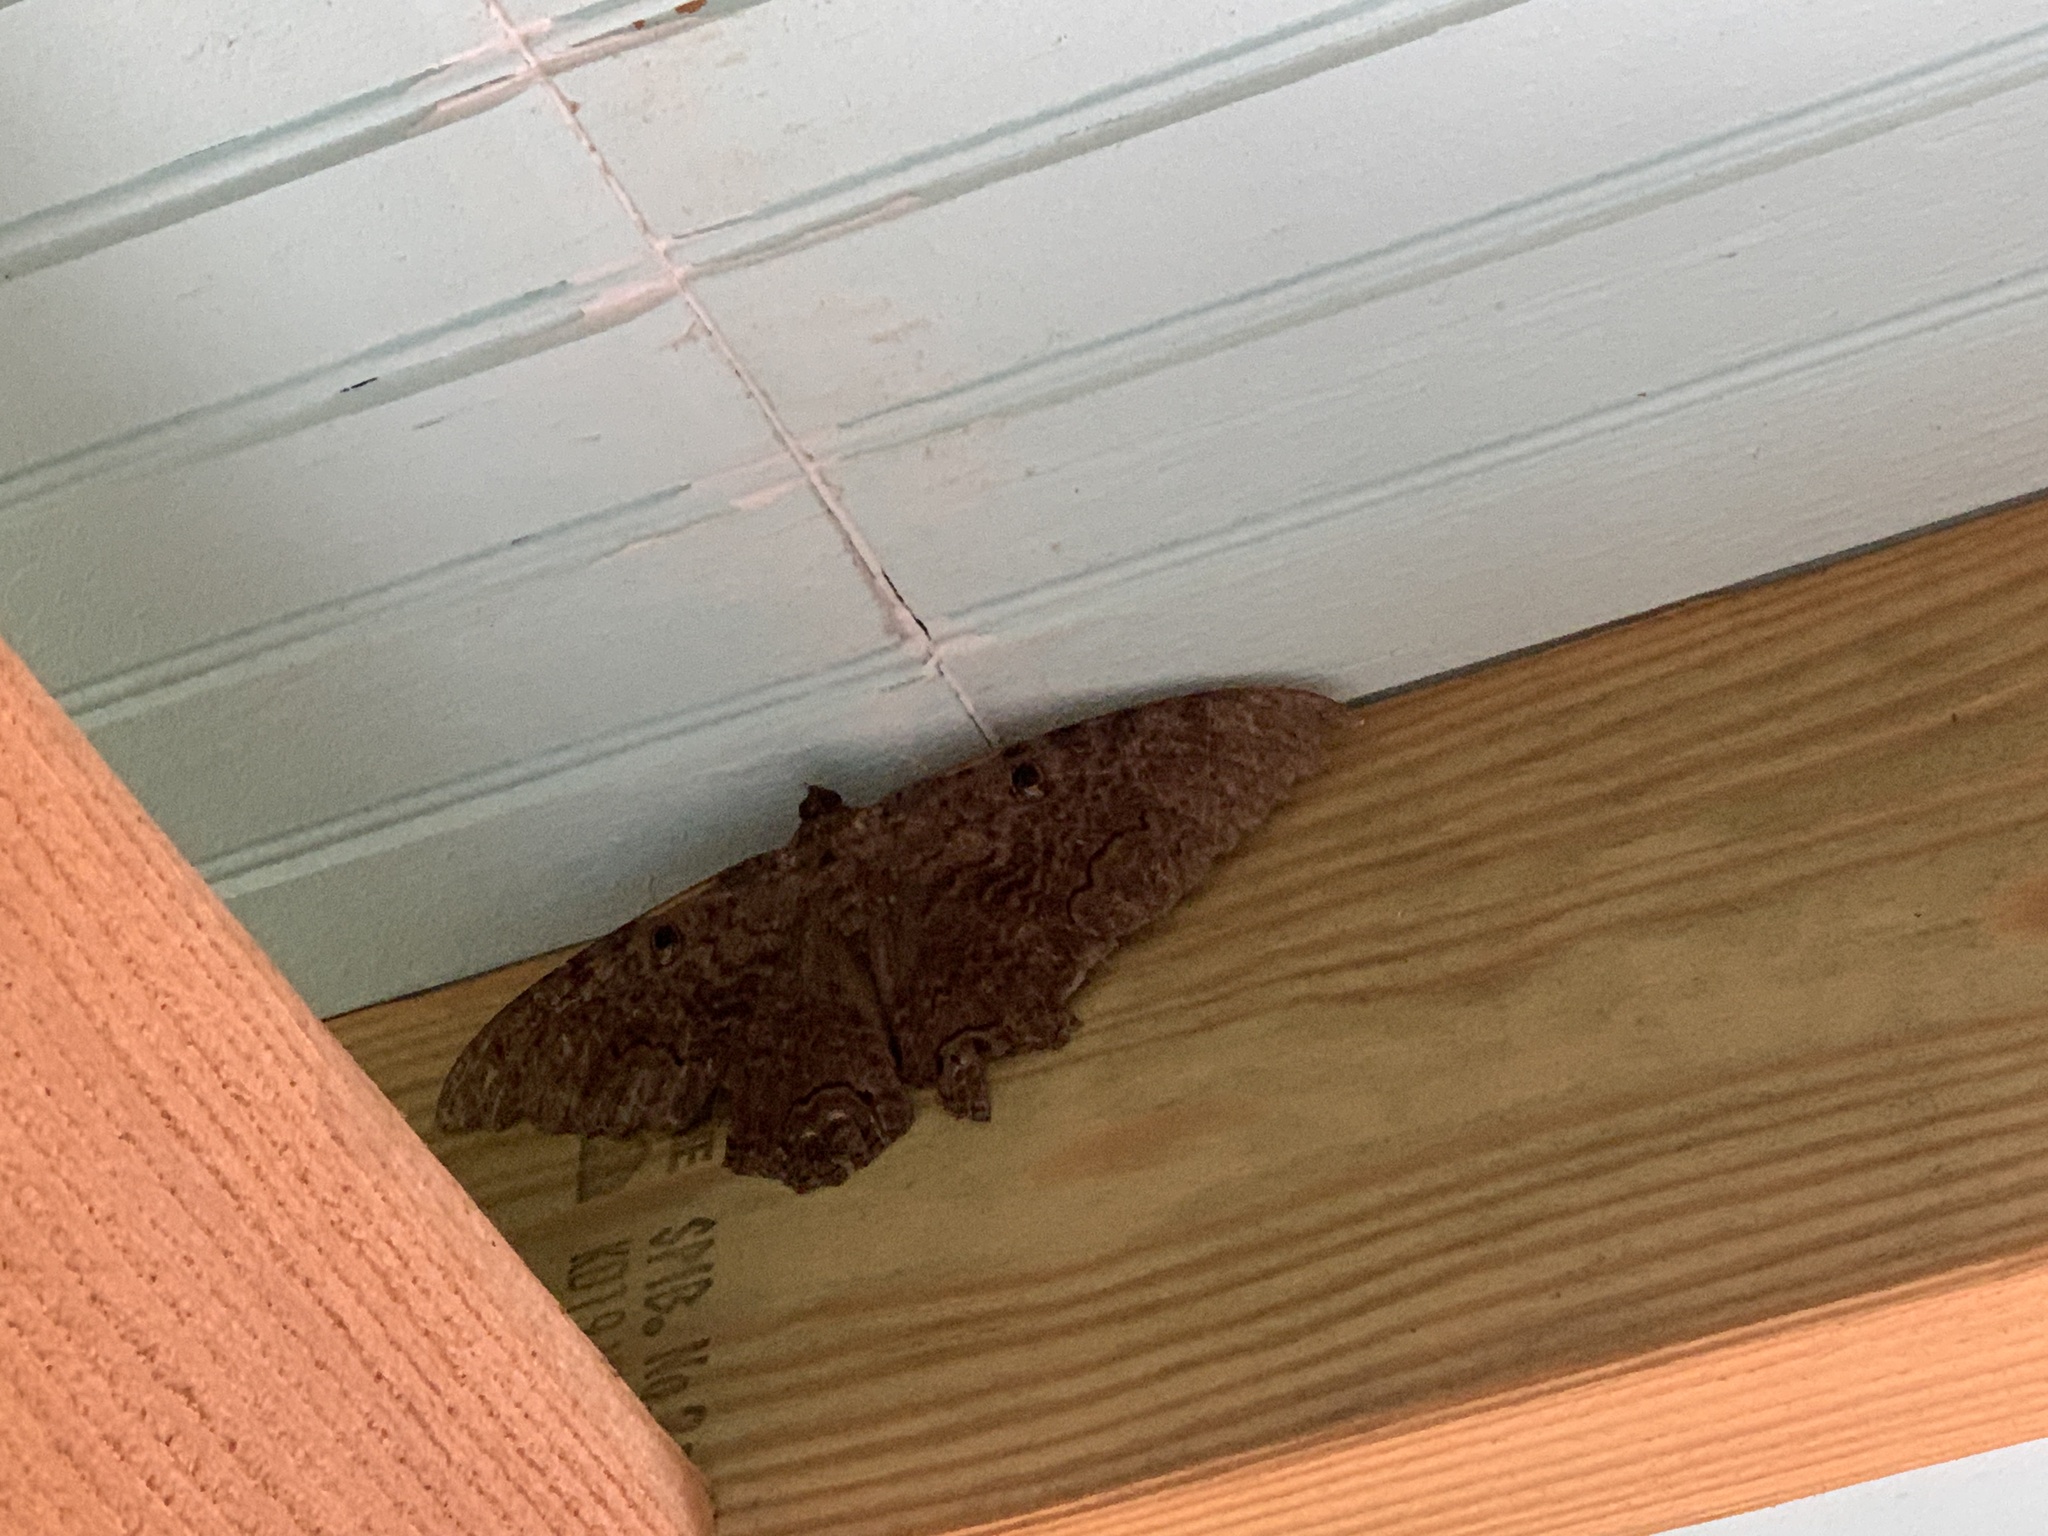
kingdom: Animalia
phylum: Arthropoda
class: Insecta
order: Lepidoptera
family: Erebidae
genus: Ascalapha
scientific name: Ascalapha odorata
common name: Black witch
